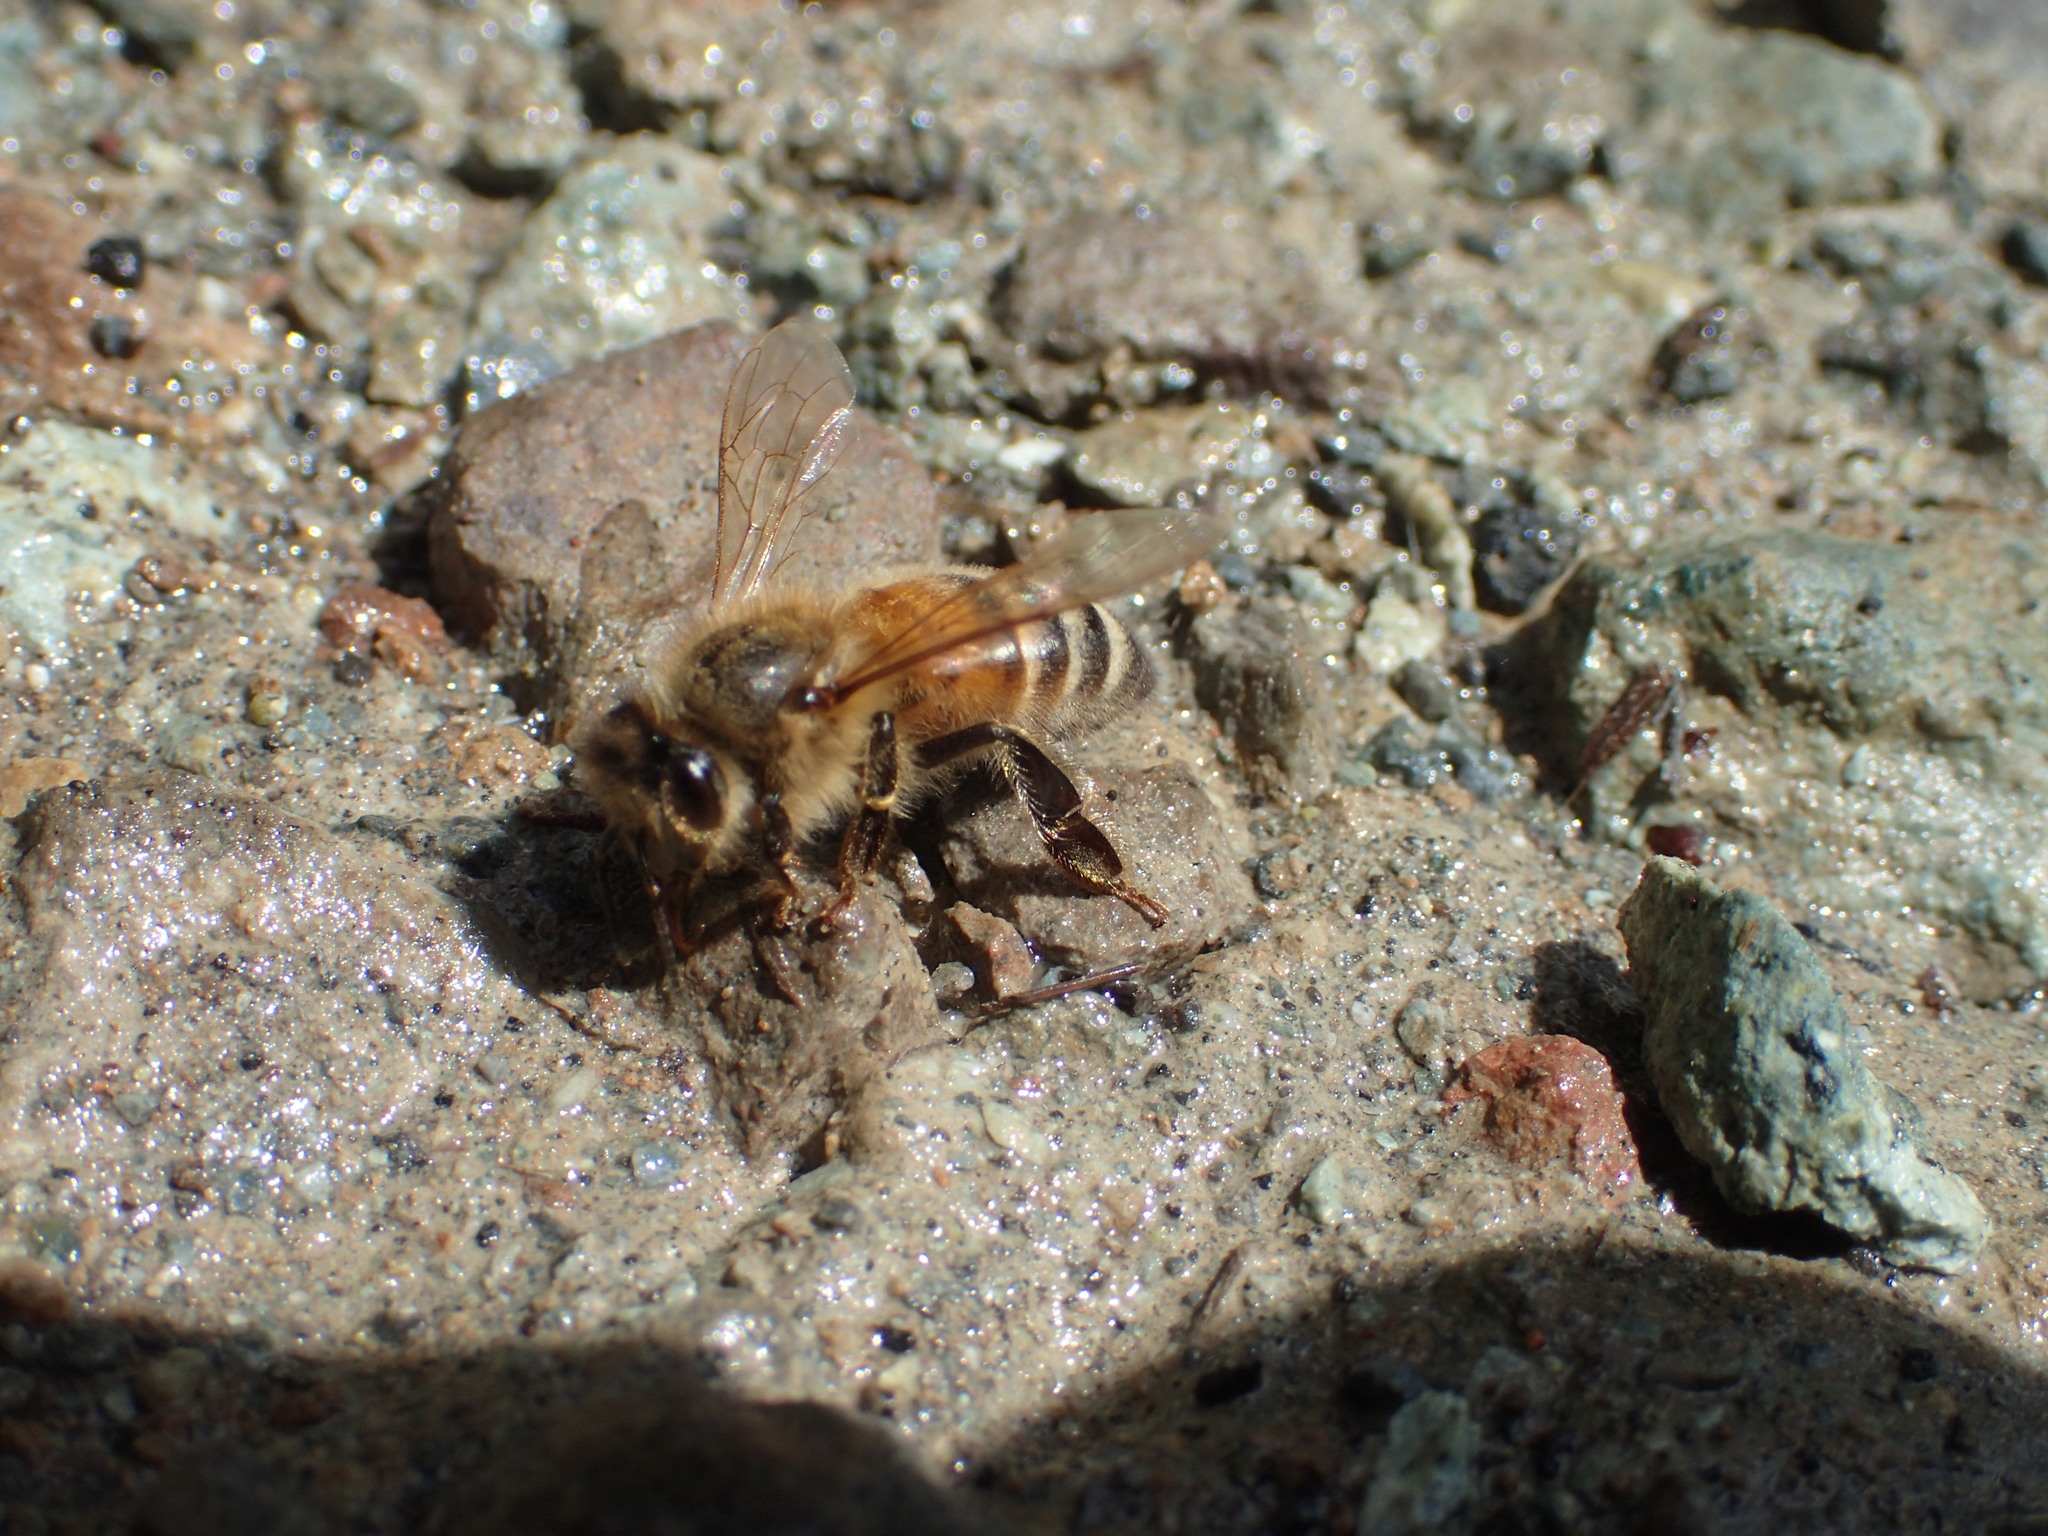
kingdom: Animalia
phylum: Arthropoda
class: Insecta
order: Hymenoptera
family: Apidae
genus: Apis
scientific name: Apis mellifera
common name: Honey bee
